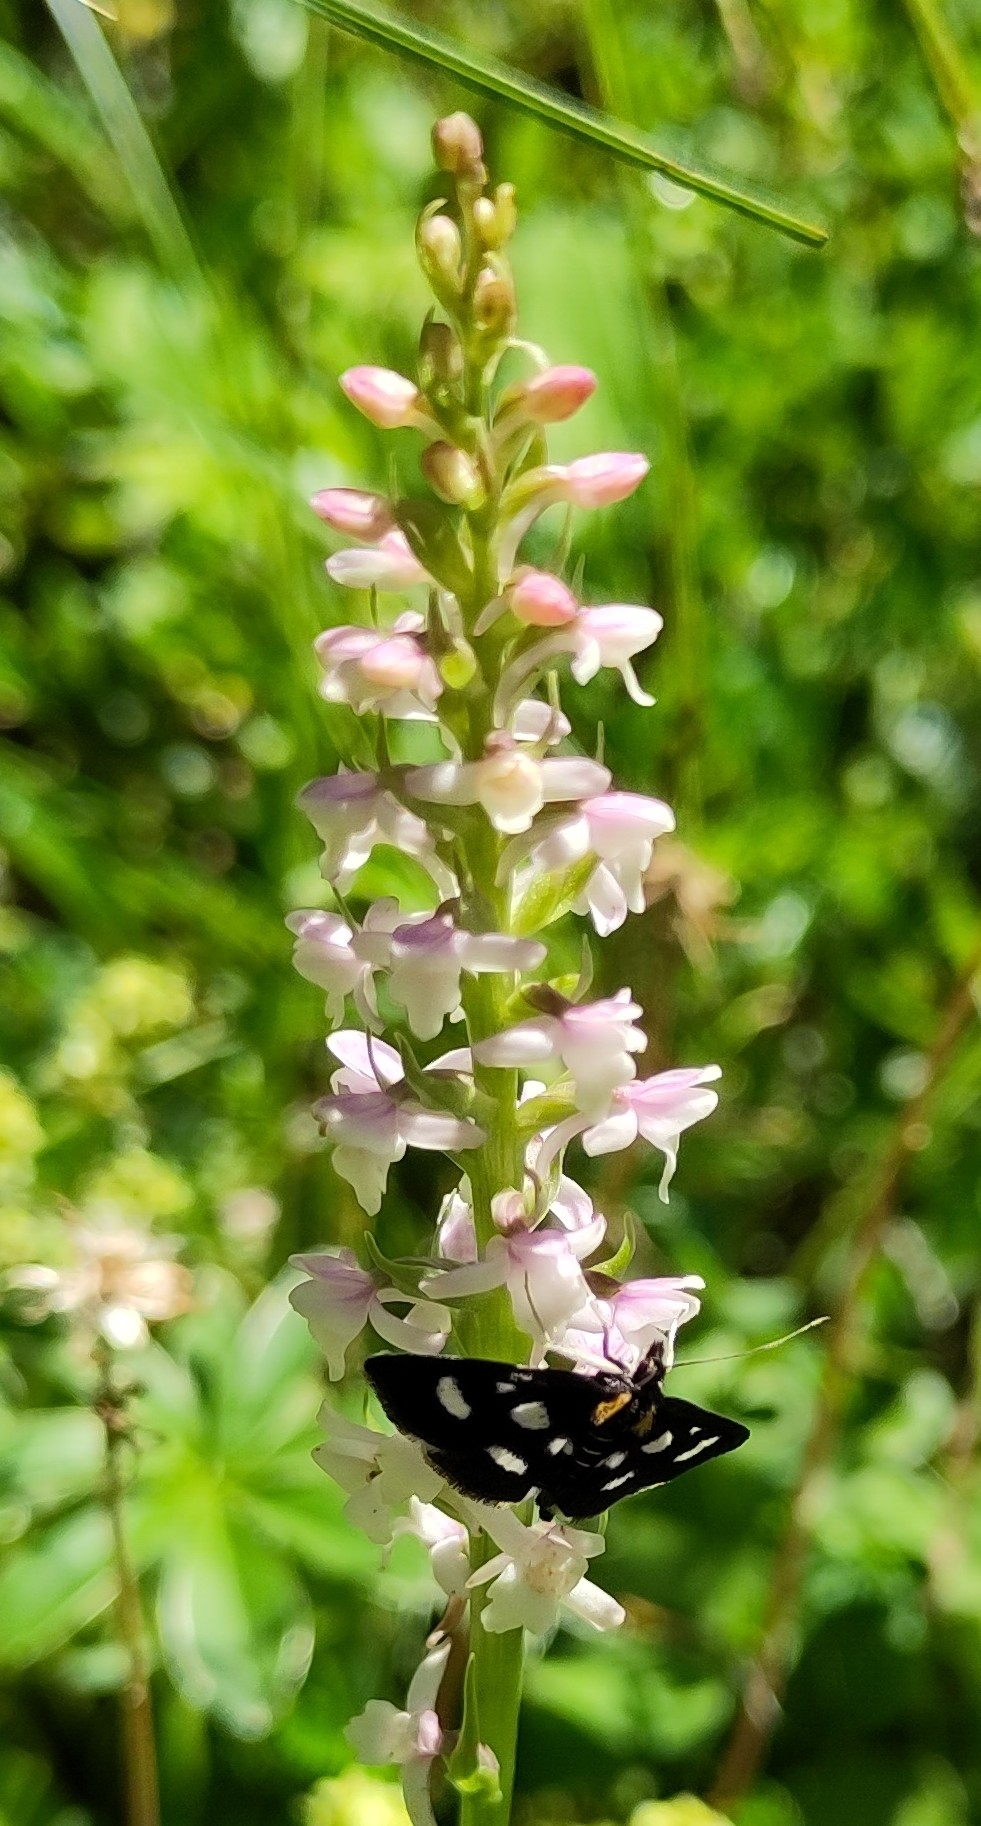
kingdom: Plantae
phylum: Tracheophyta
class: Liliopsida
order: Asparagales
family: Orchidaceae
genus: Gymnadenia
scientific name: Gymnadenia odoratissima
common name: Scented gymnadenia
